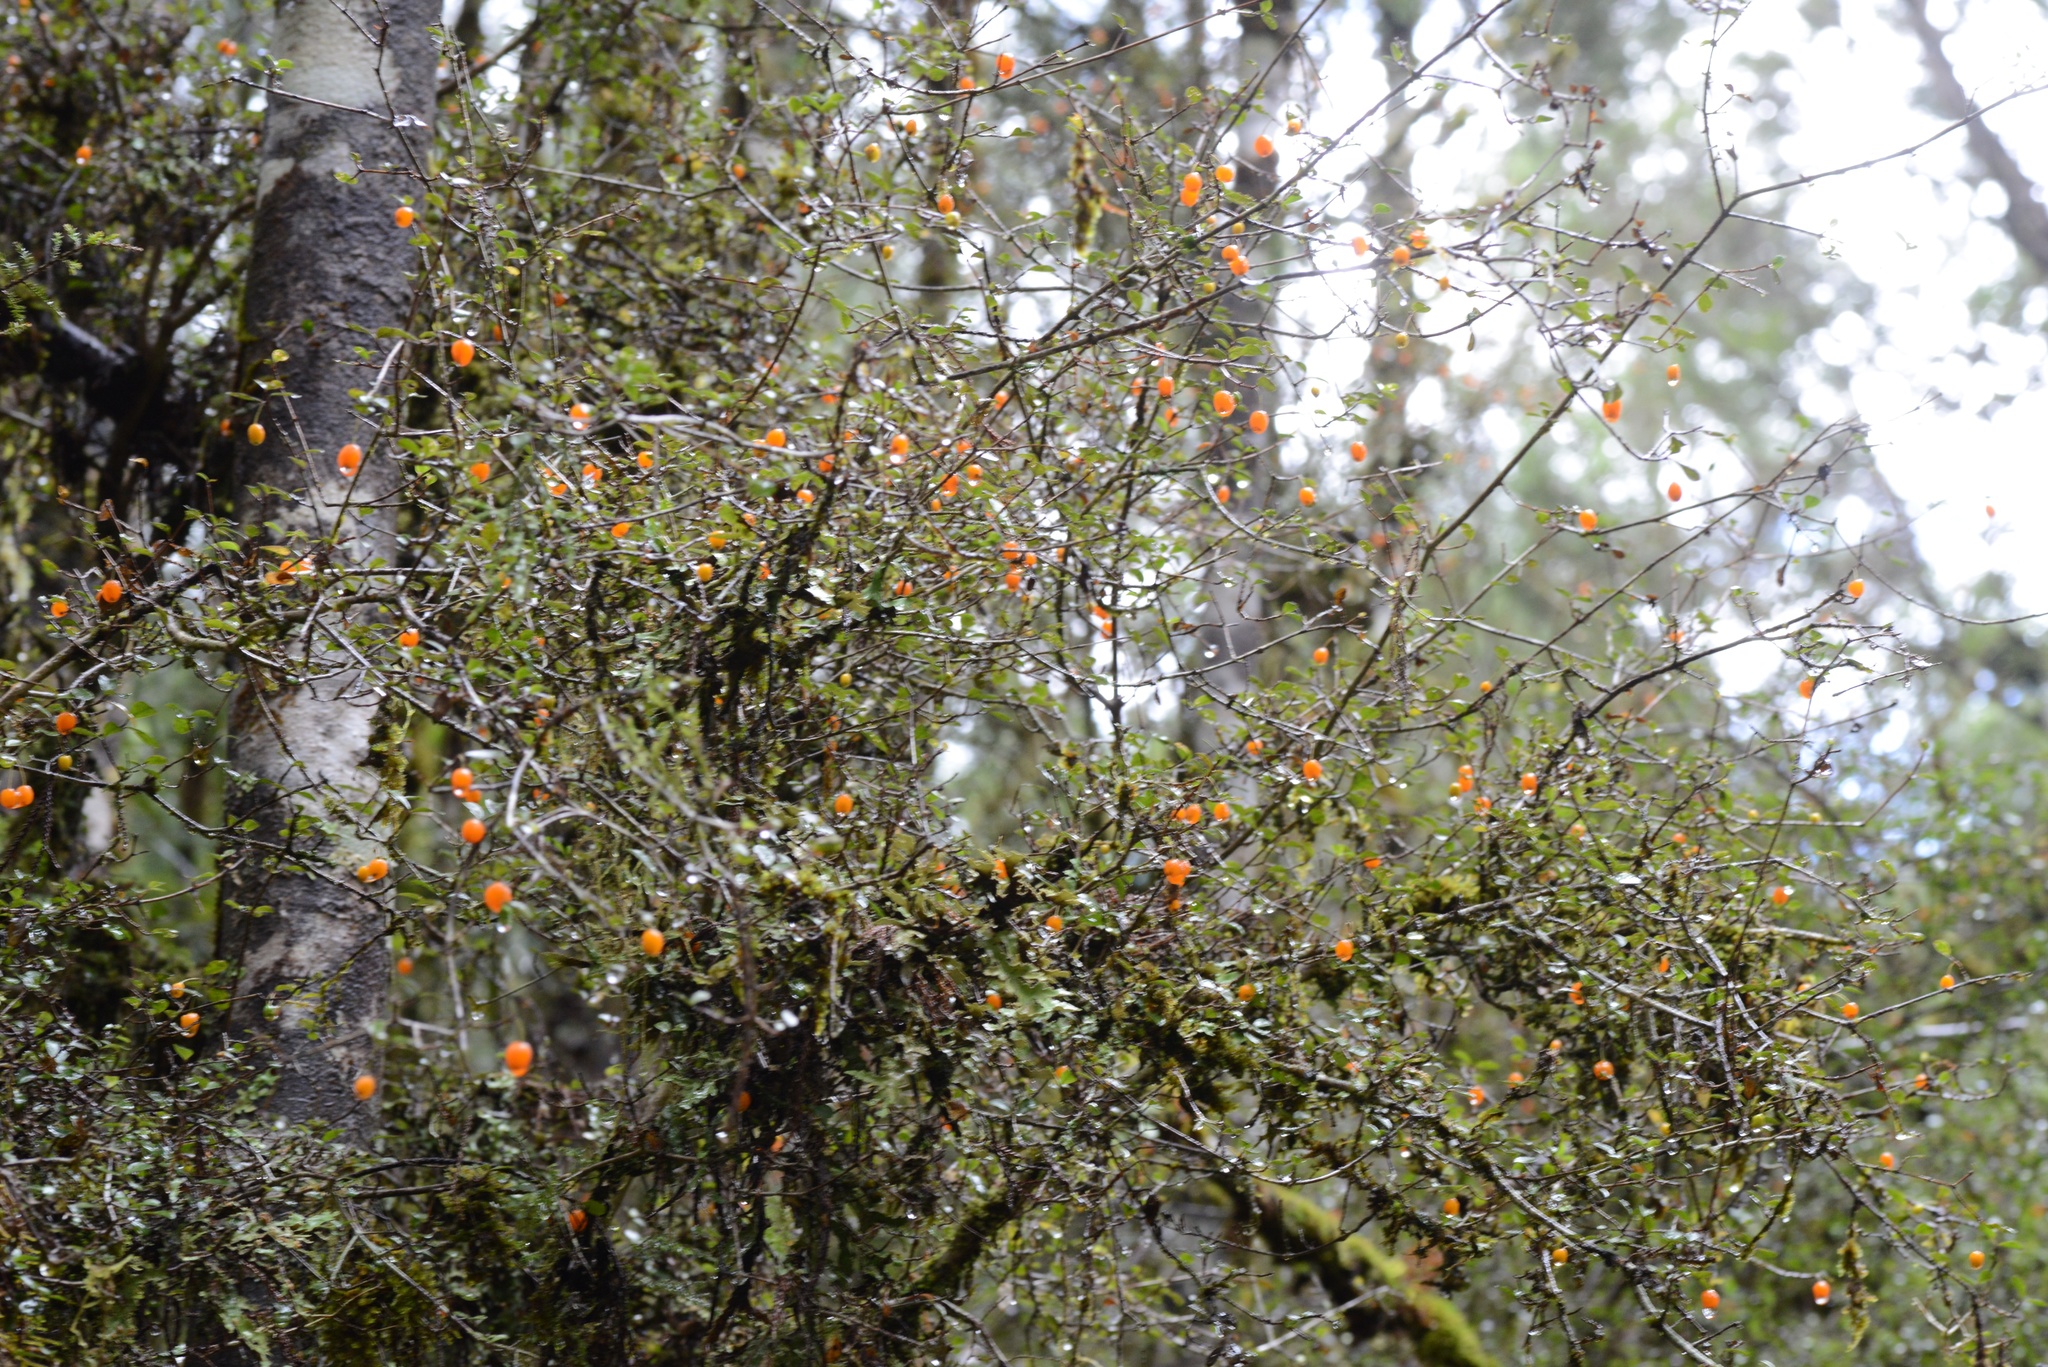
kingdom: Plantae
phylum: Tracheophyta
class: Magnoliopsida
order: Myrtales
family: Myrtaceae
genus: Neomyrtus
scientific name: Neomyrtus pedunculata
